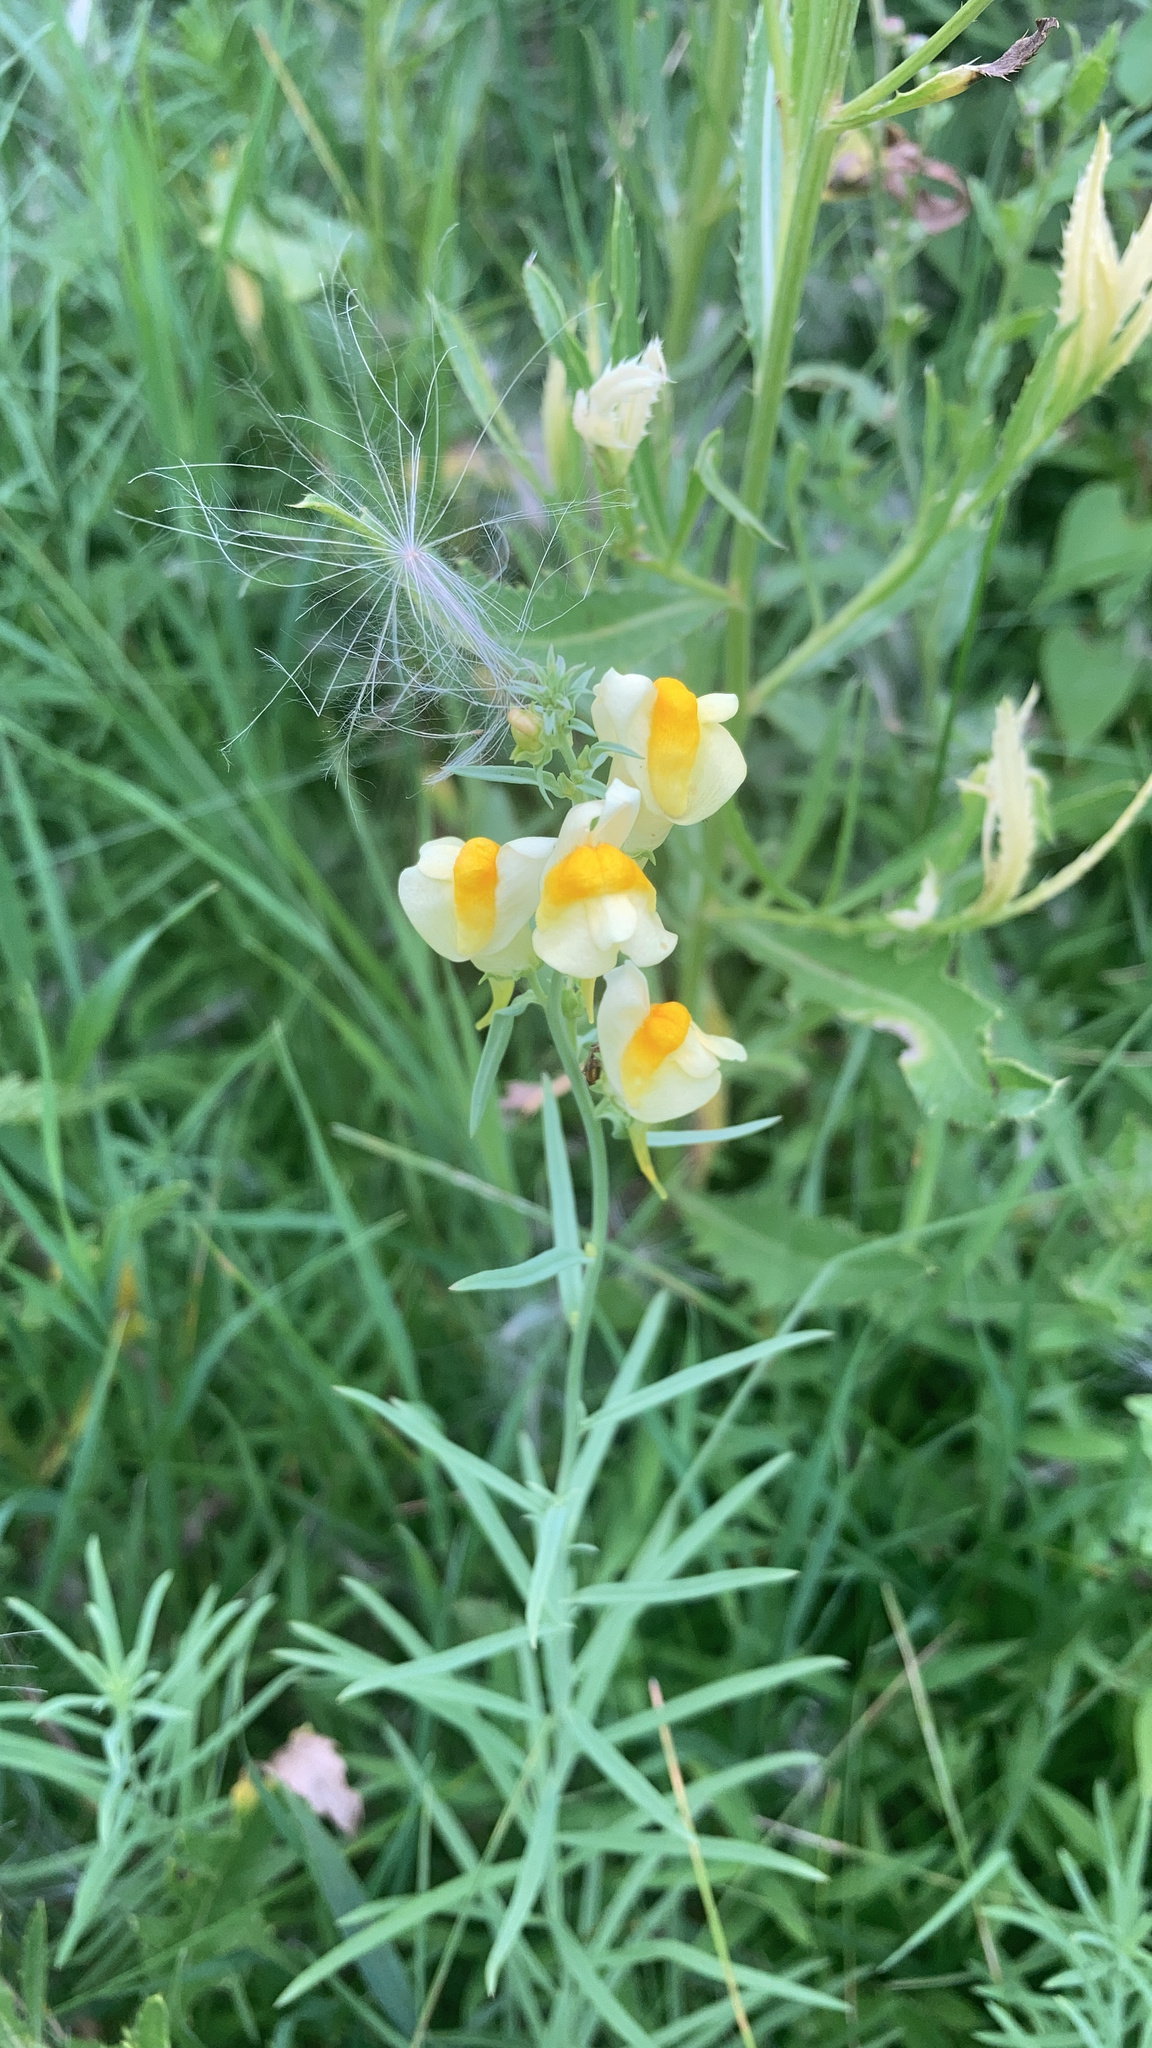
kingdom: Plantae
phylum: Tracheophyta
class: Magnoliopsida
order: Lamiales
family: Plantaginaceae
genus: Linaria
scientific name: Linaria vulgaris
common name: Butter and eggs
